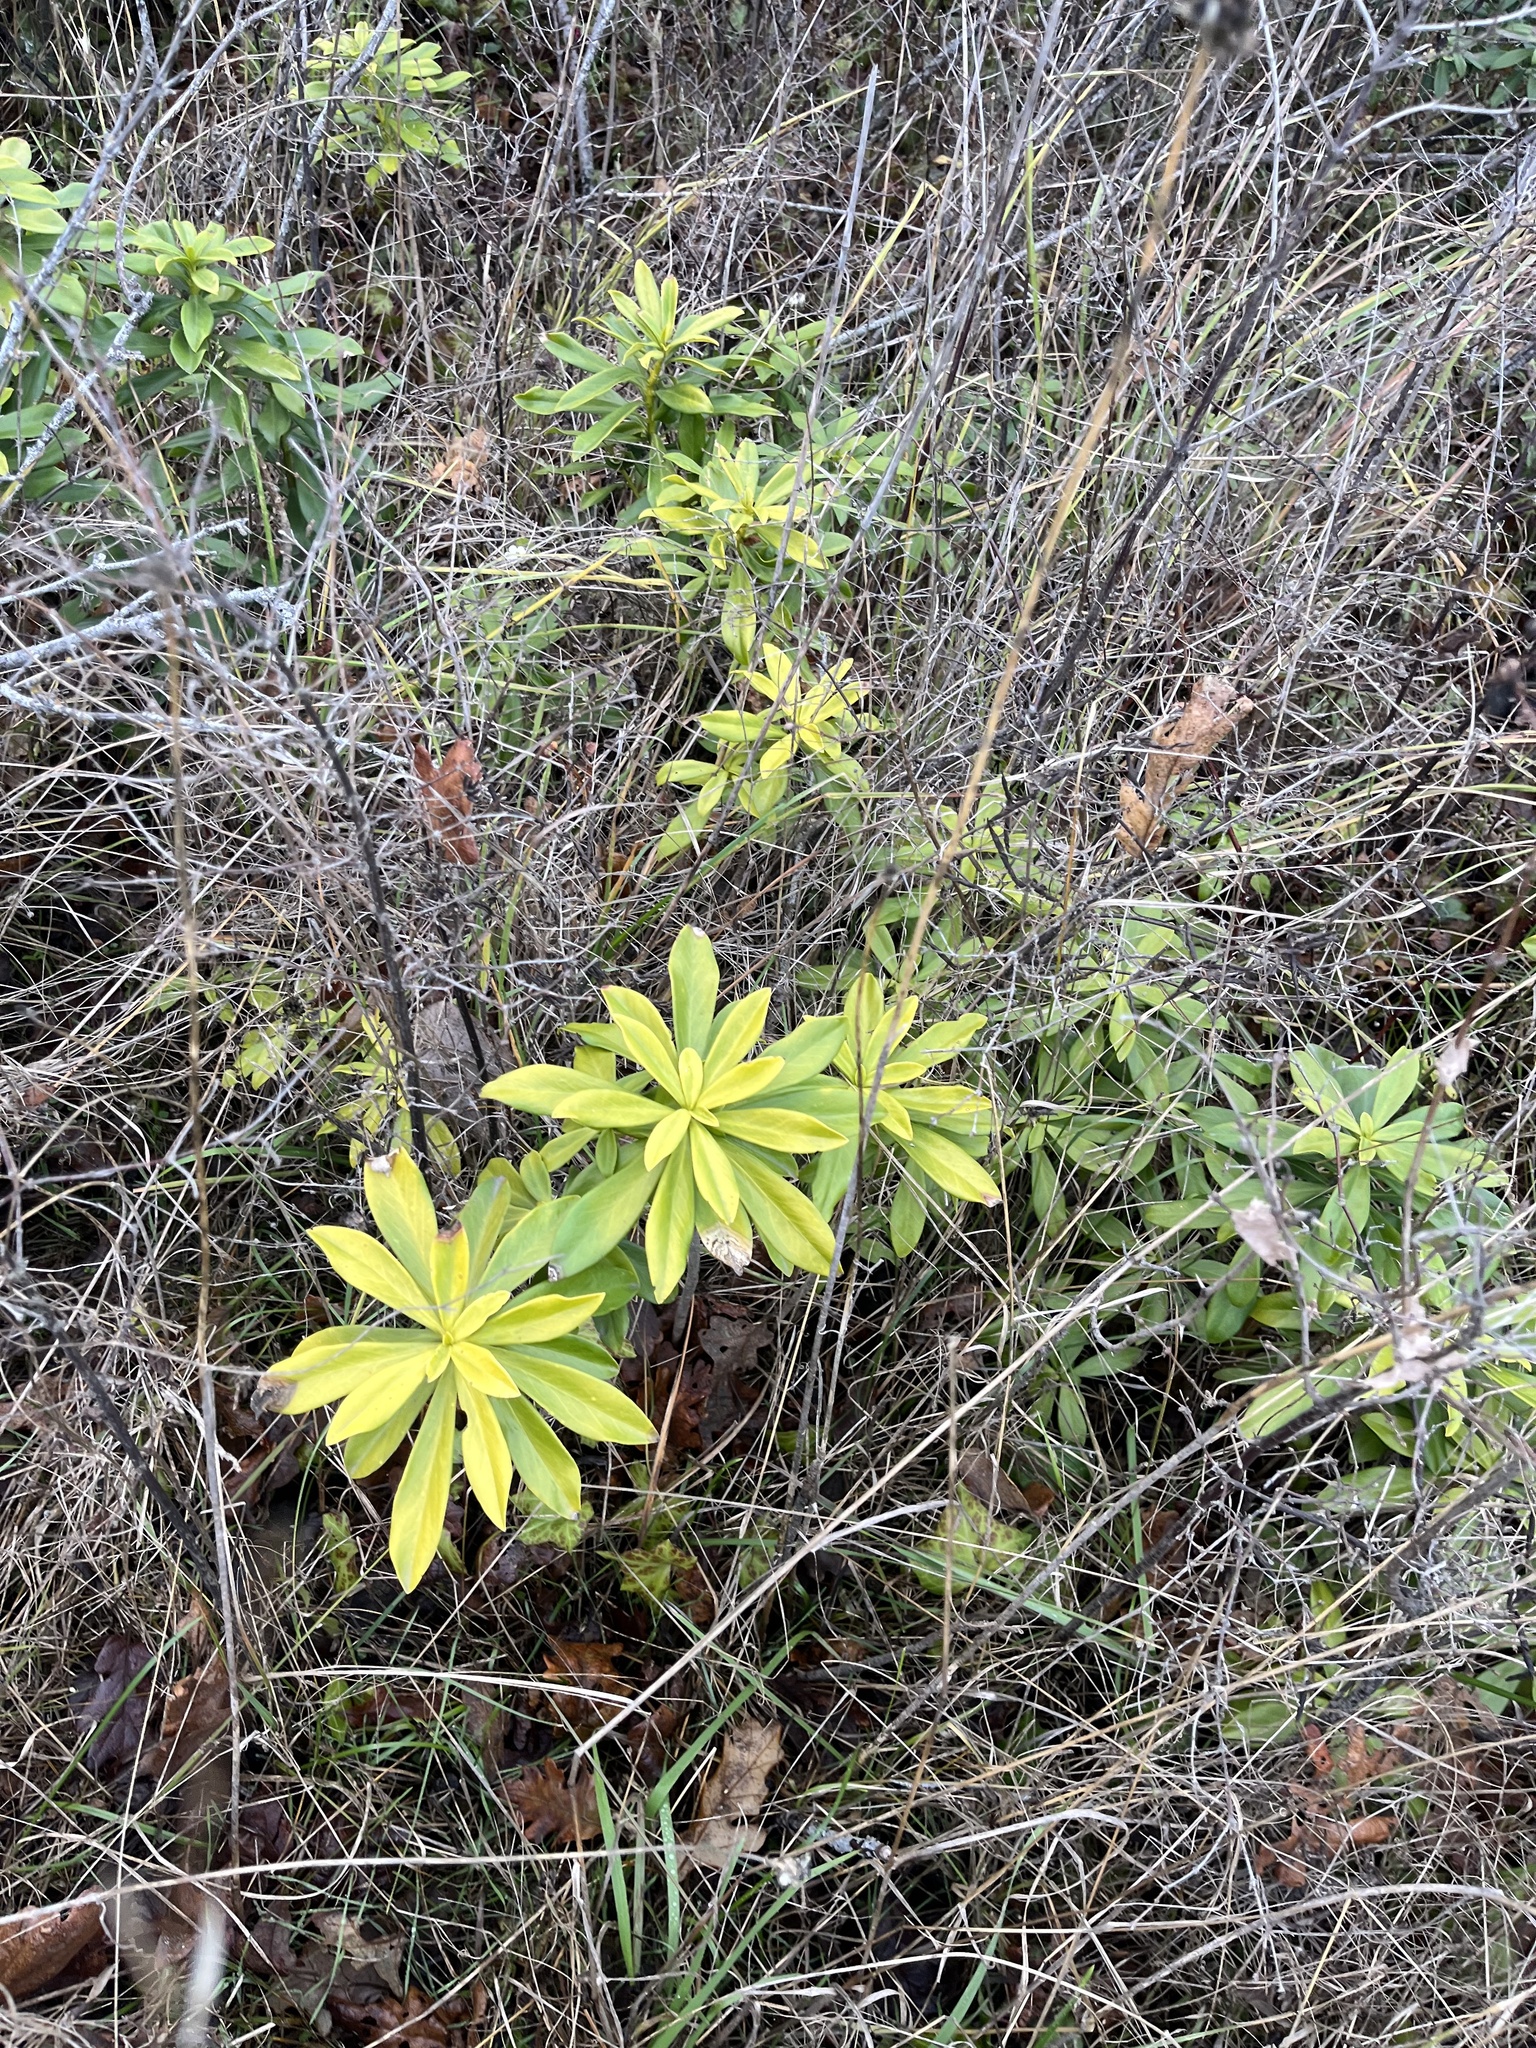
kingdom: Plantae
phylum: Tracheophyta
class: Magnoliopsida
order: Malvales
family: Thymelaeaceae
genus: Daphne
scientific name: Daphne laureola
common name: Spurge-laurel
